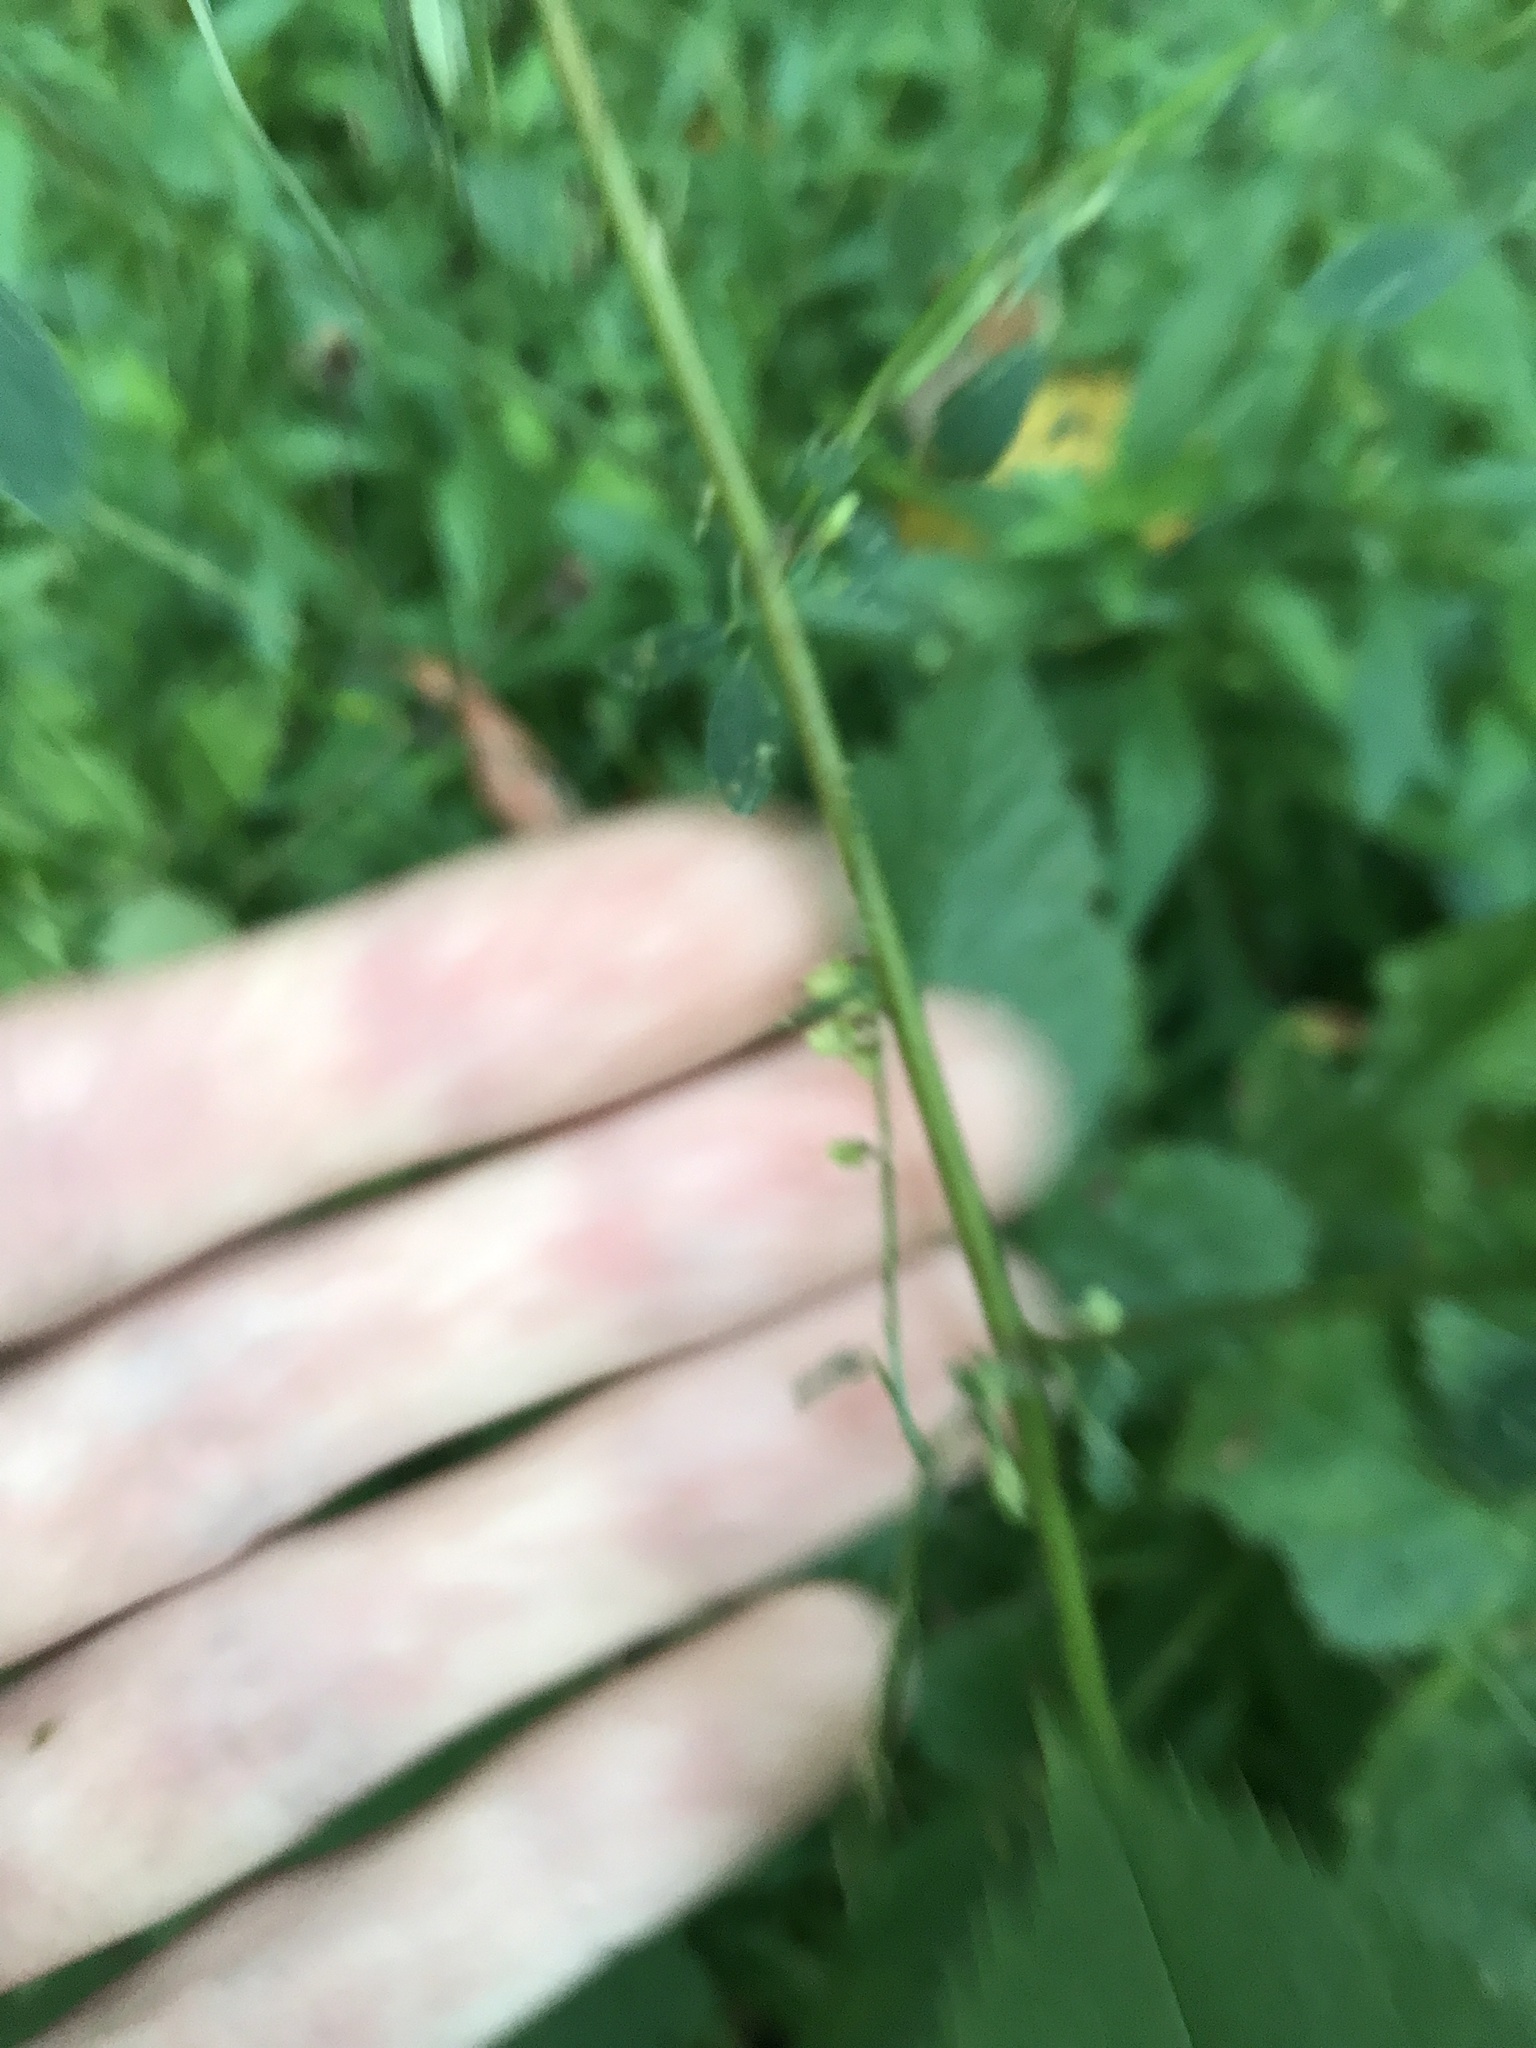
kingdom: Plantae
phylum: Tracheophyta
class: Magnoliopsida
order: Fabales
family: Fabaceae
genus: Melilotus
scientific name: Melilotus officinalis
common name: Sweetclover
